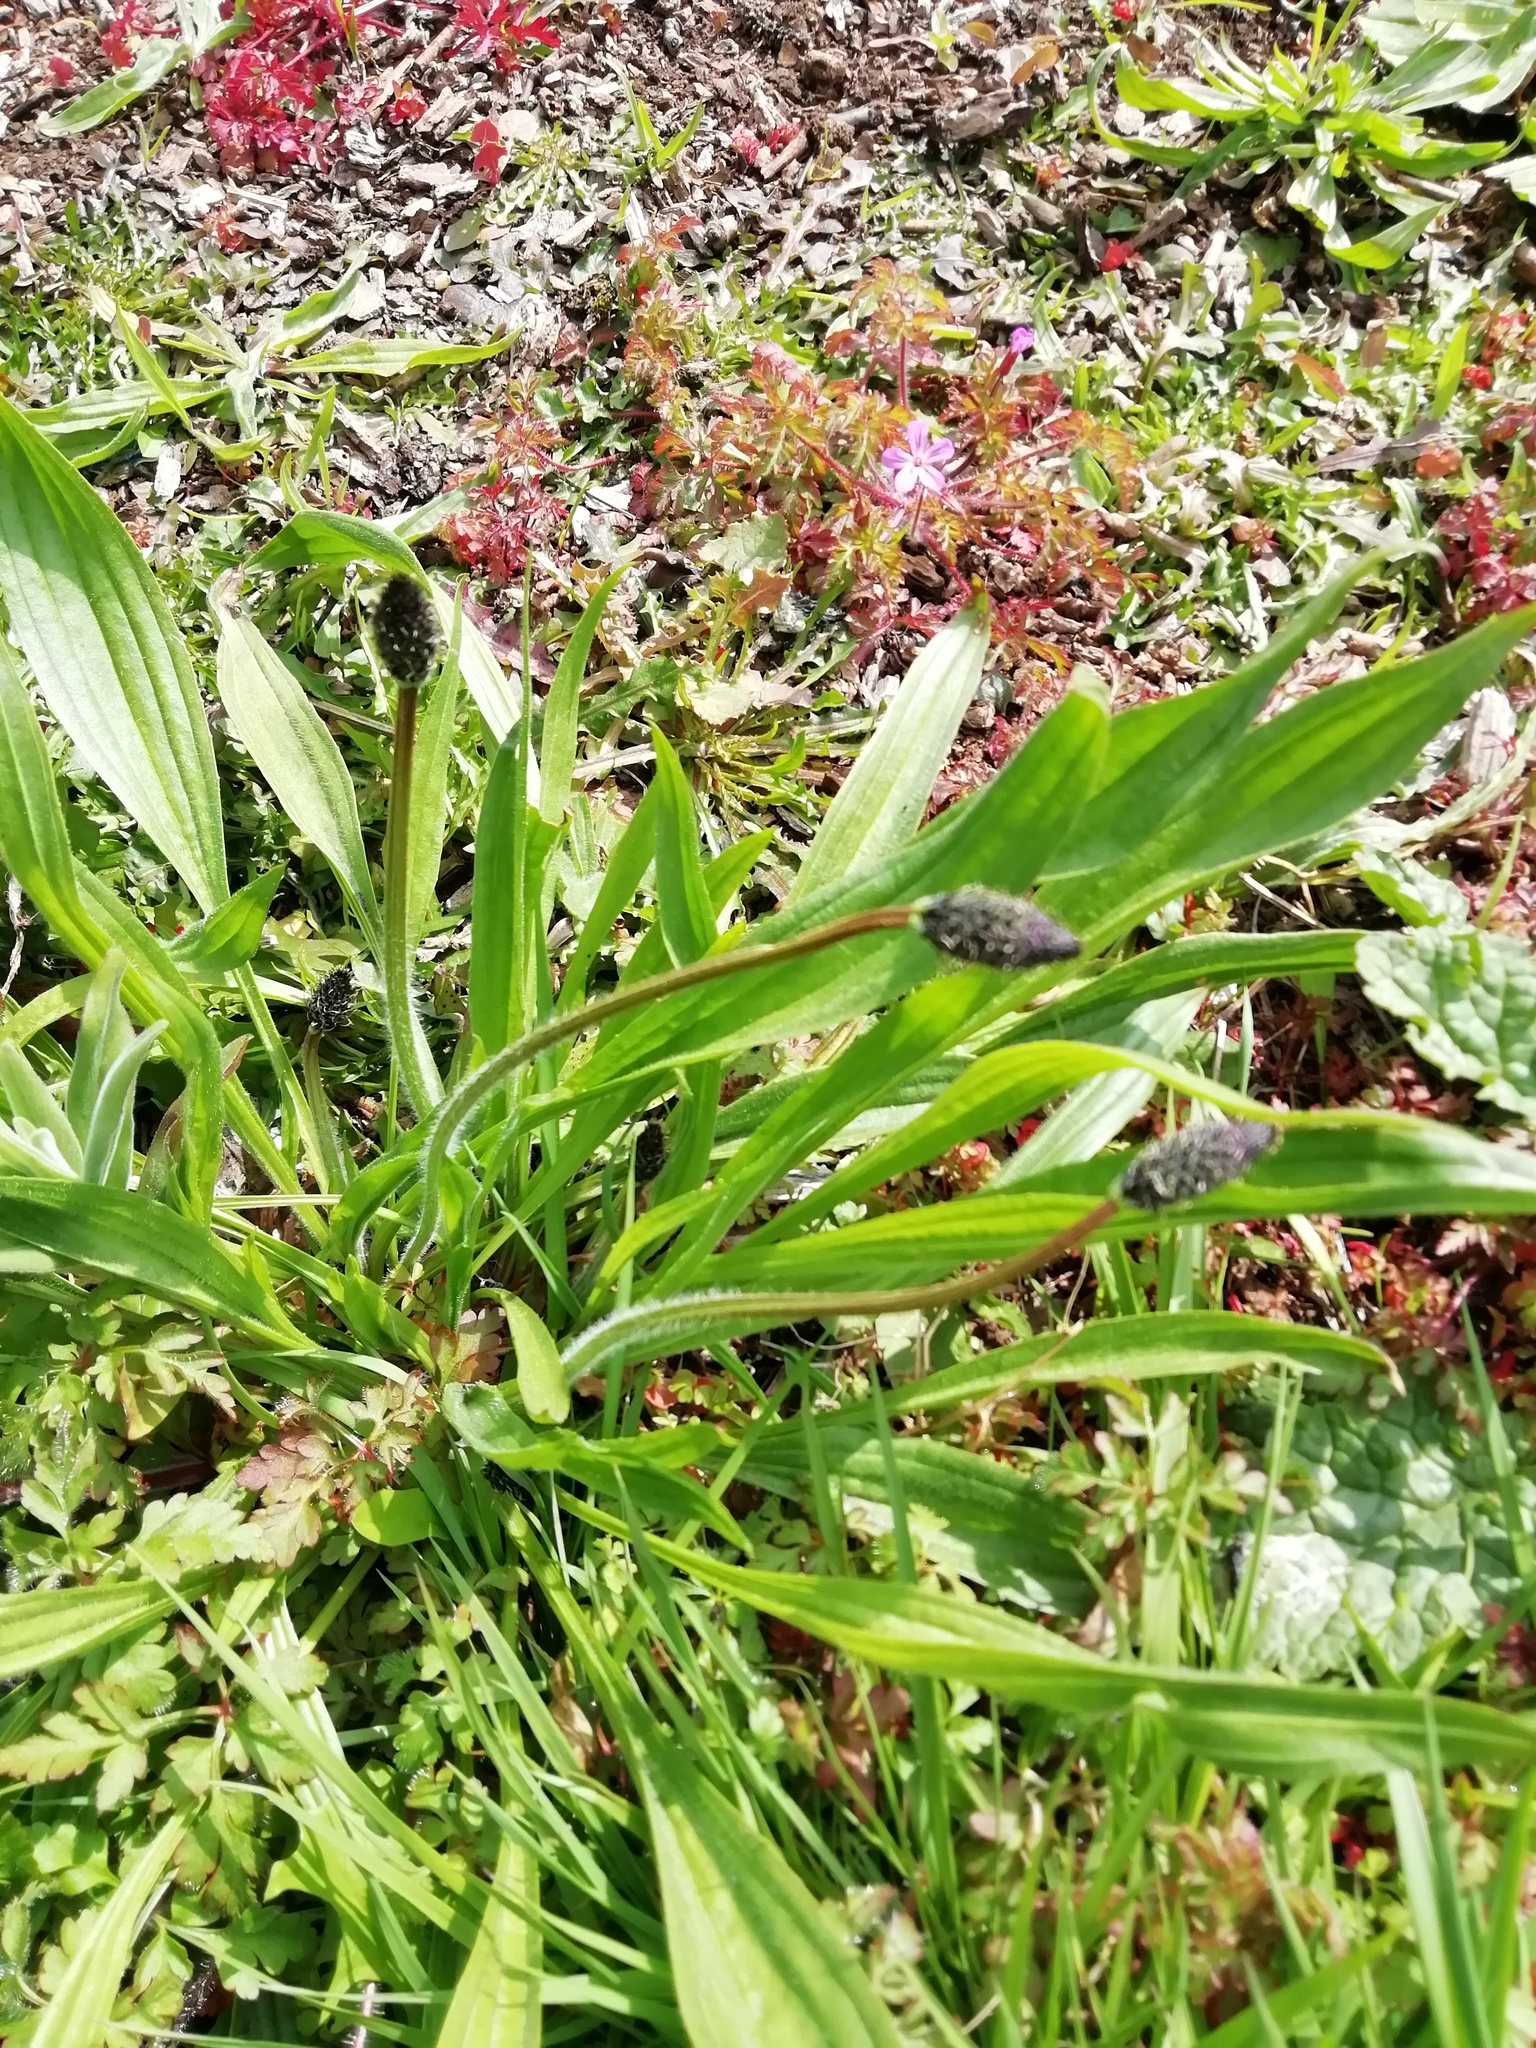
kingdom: Plantae
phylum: Tracheophyta
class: Magnoliopsida
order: Lamiales
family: Plantaginaceae
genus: Plantago
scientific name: Plantago lanceolata
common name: Ribwort plantain
